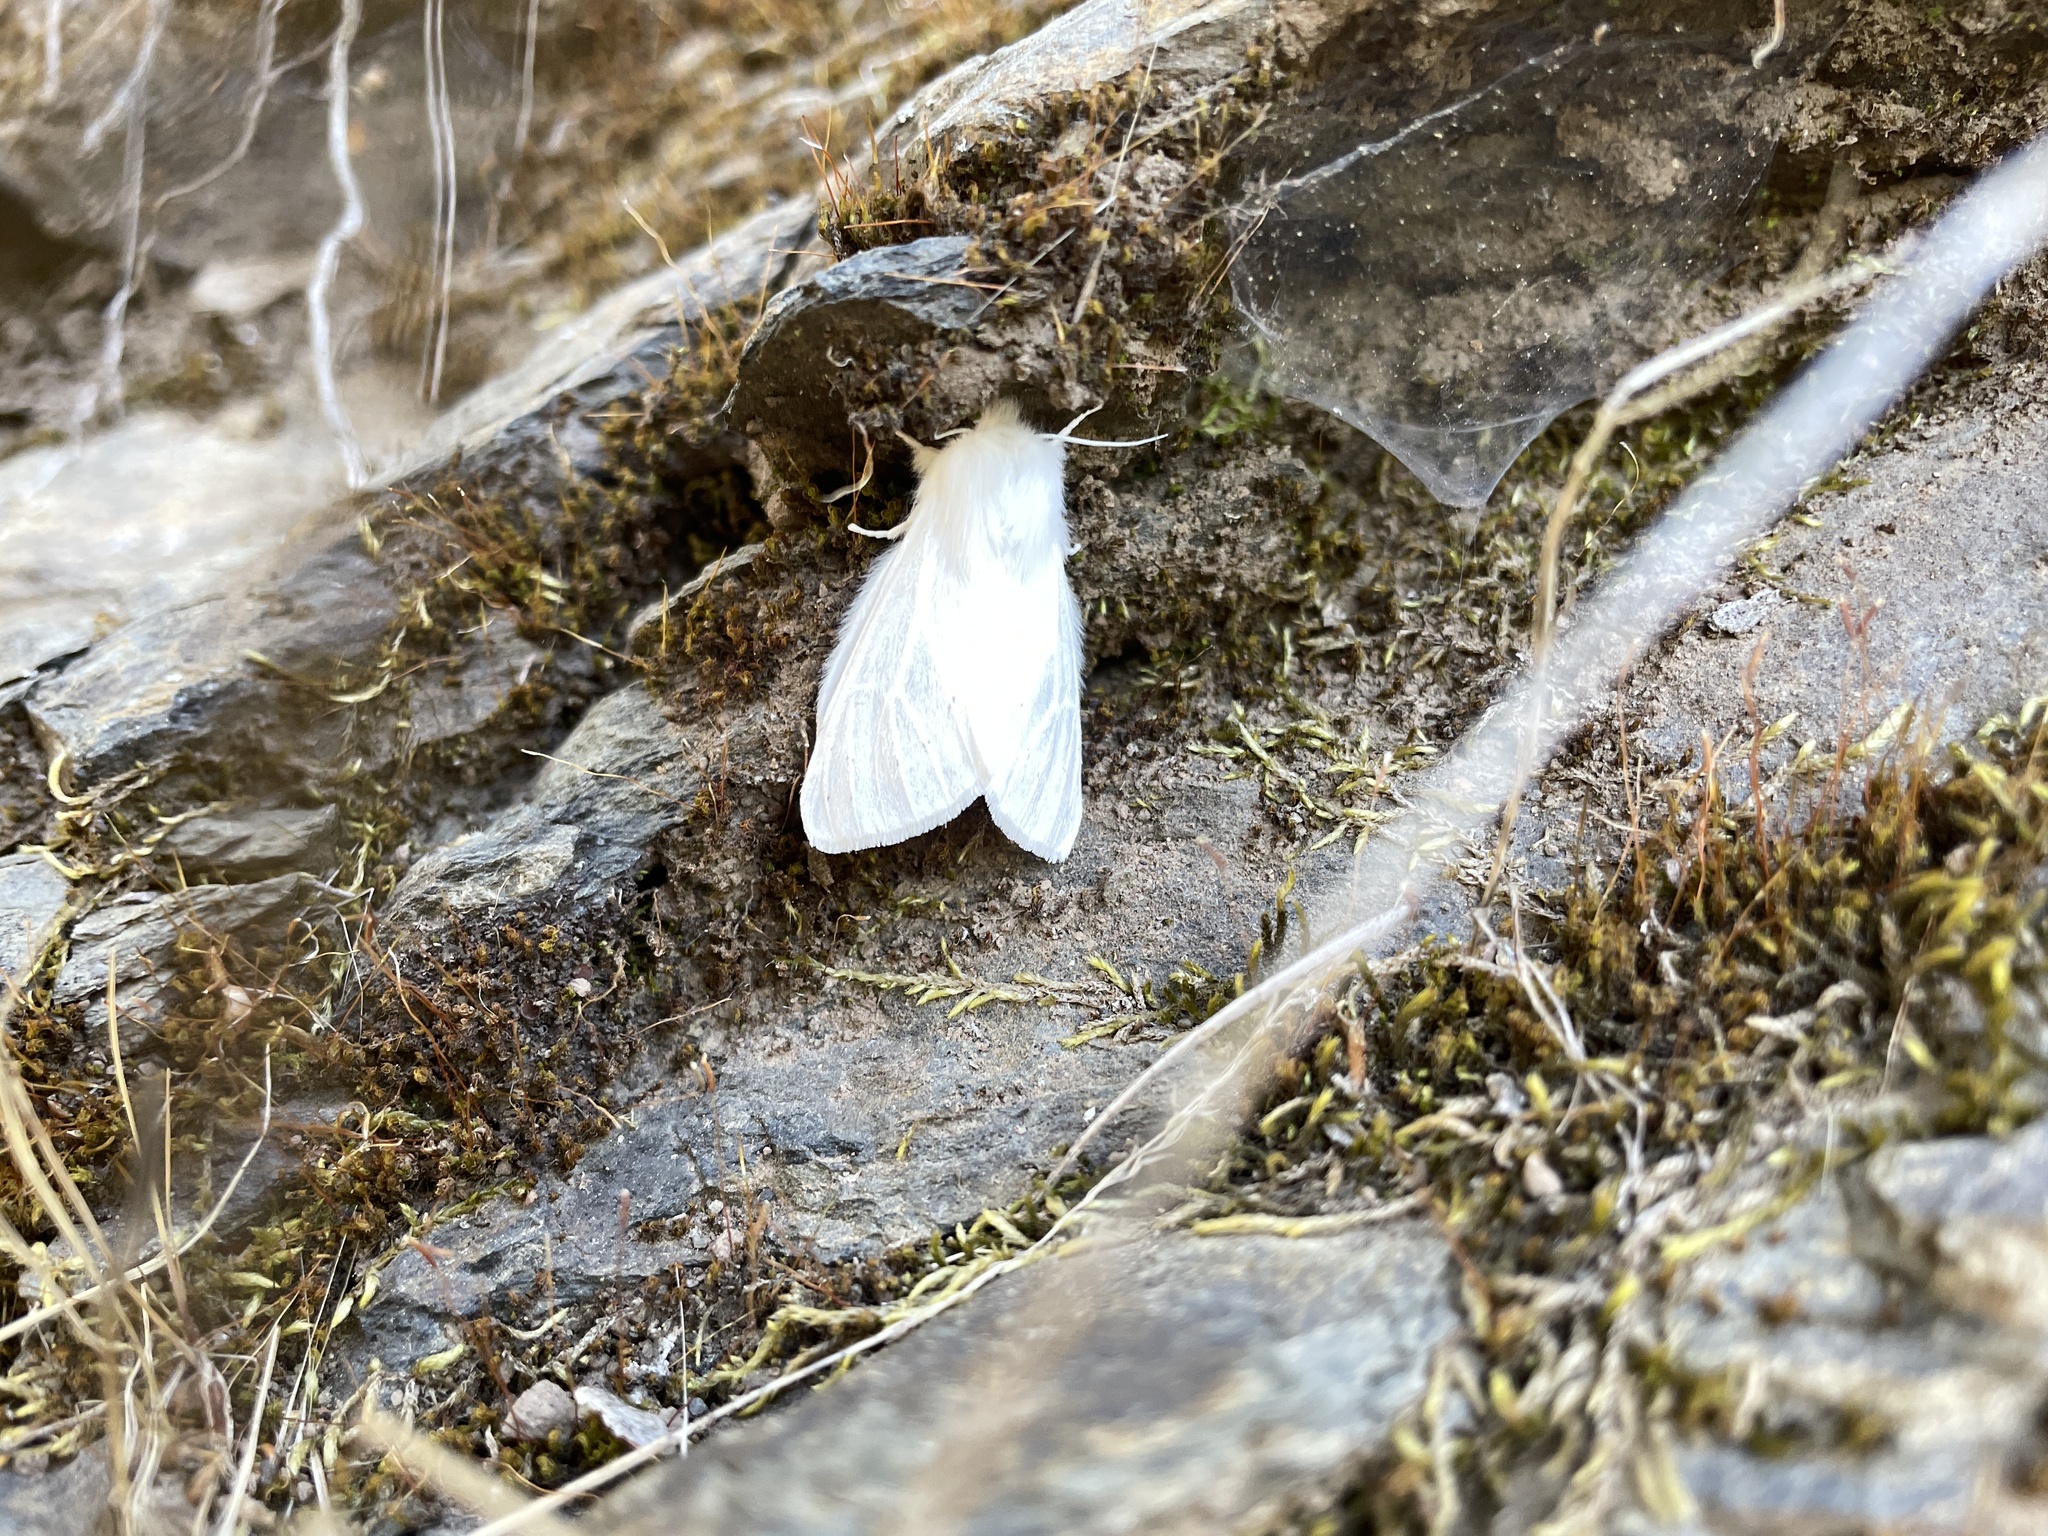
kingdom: Animalia
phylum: Arthropoda
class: Insecta
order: Lepidoptera
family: Erebidae
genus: Spilosoma
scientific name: Spilosoma vestalis
